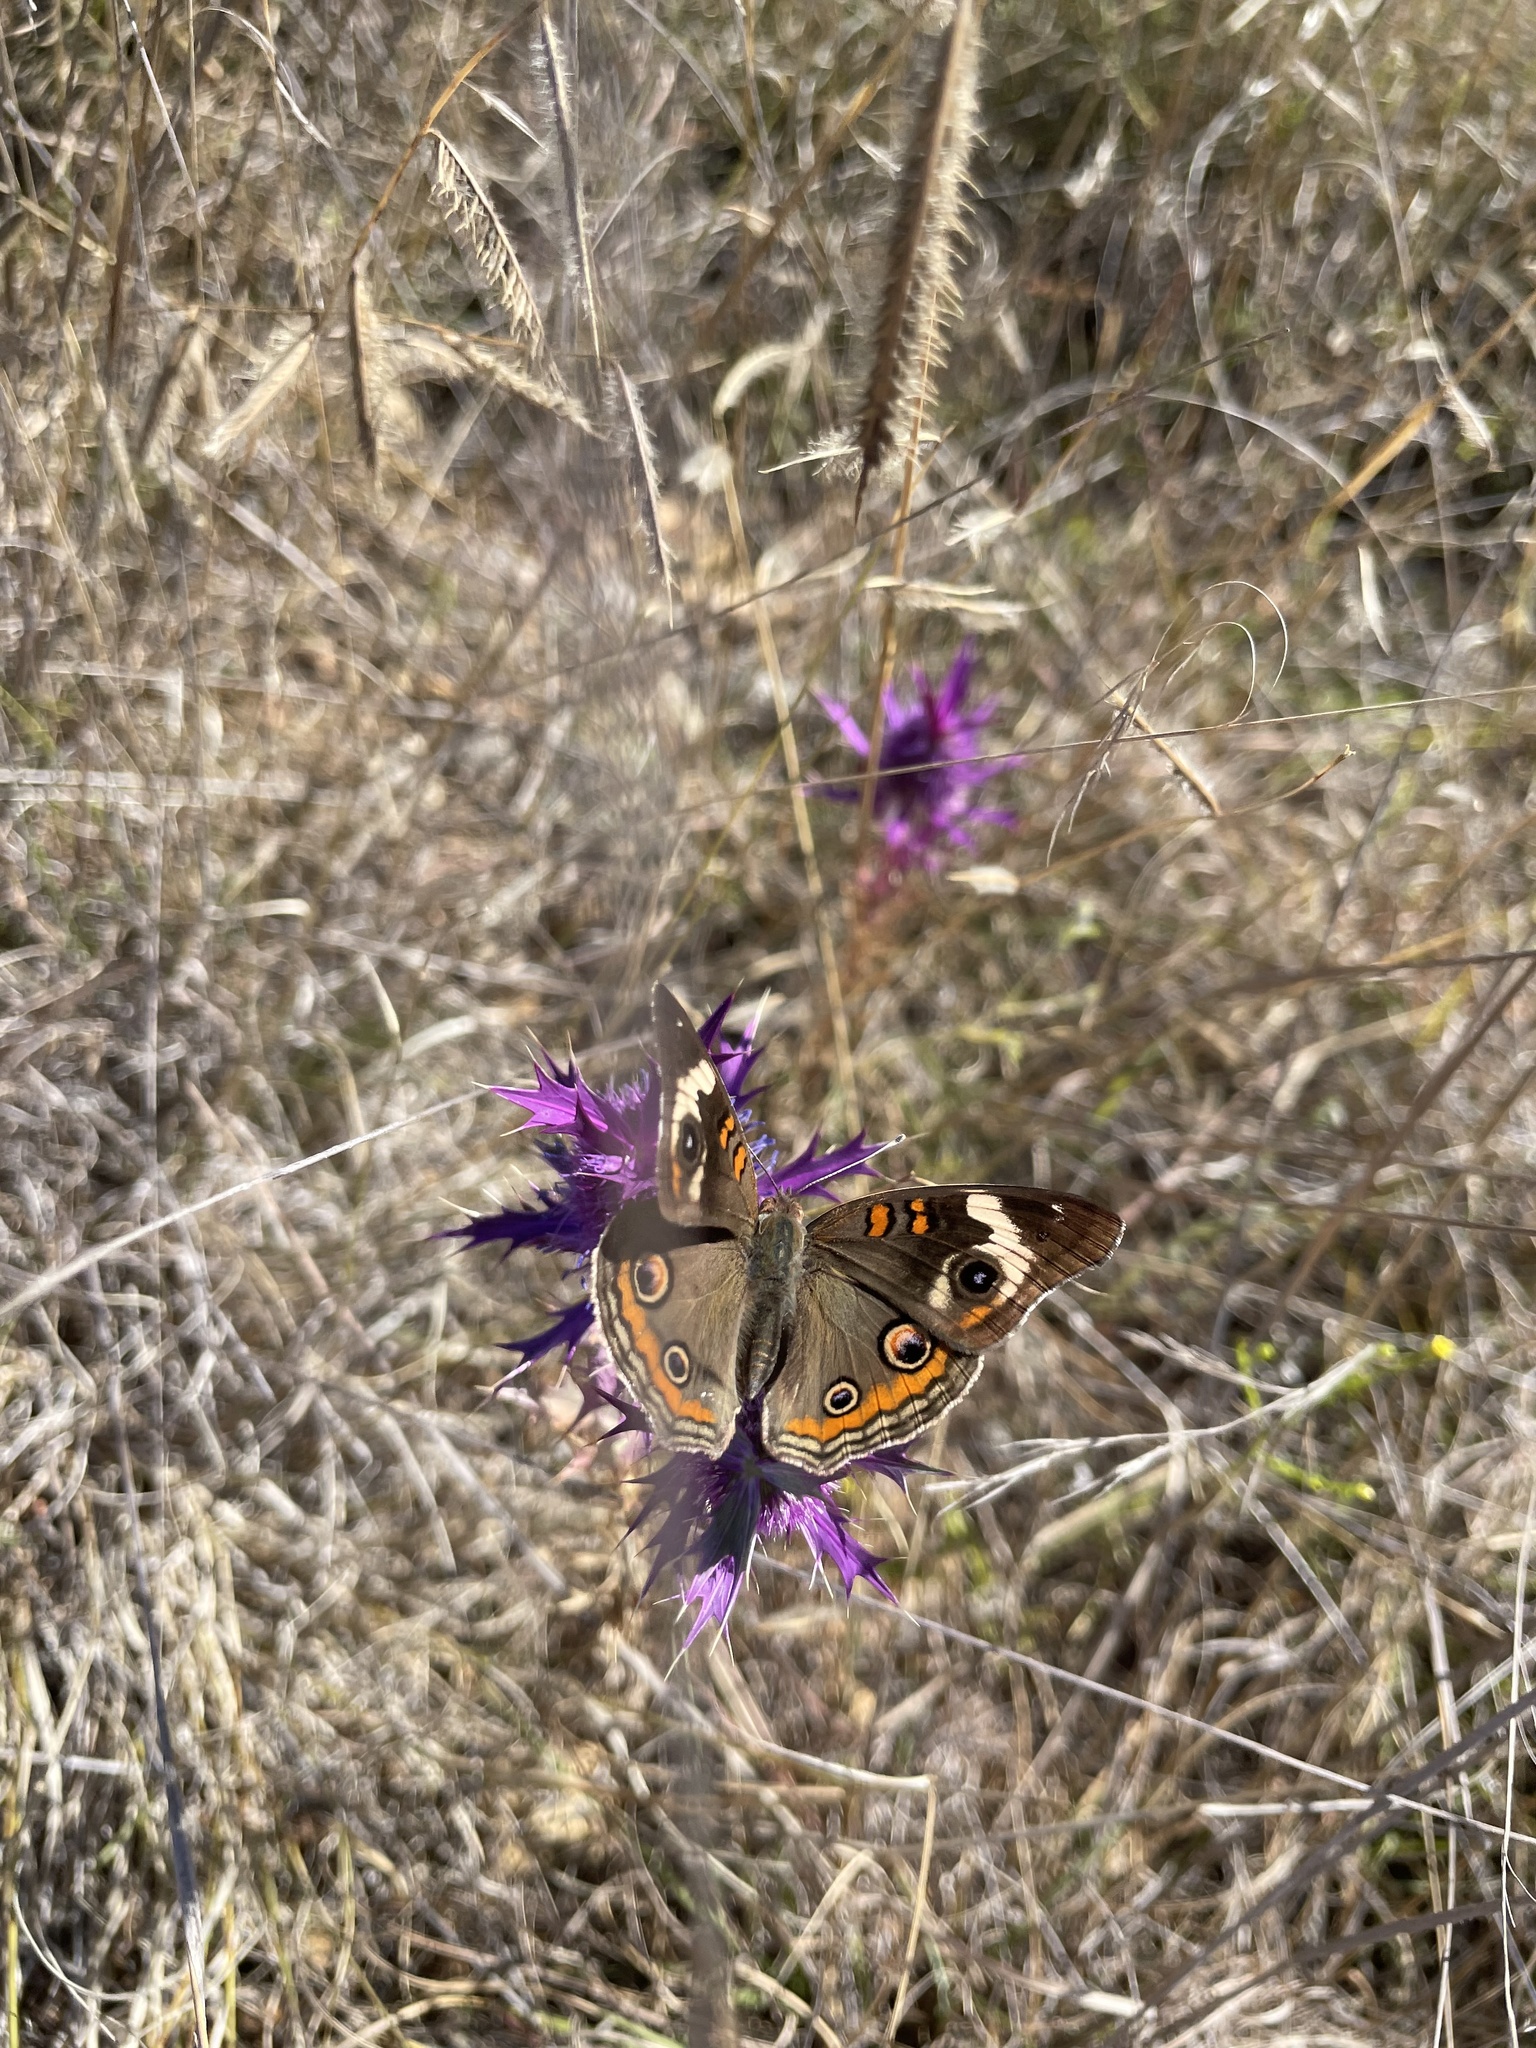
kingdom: Animalia
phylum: Arthropoda
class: Insecta
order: Lepidoptera
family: Nymphalidae
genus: Junonia
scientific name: Junonia coenia
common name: Common buckeye
